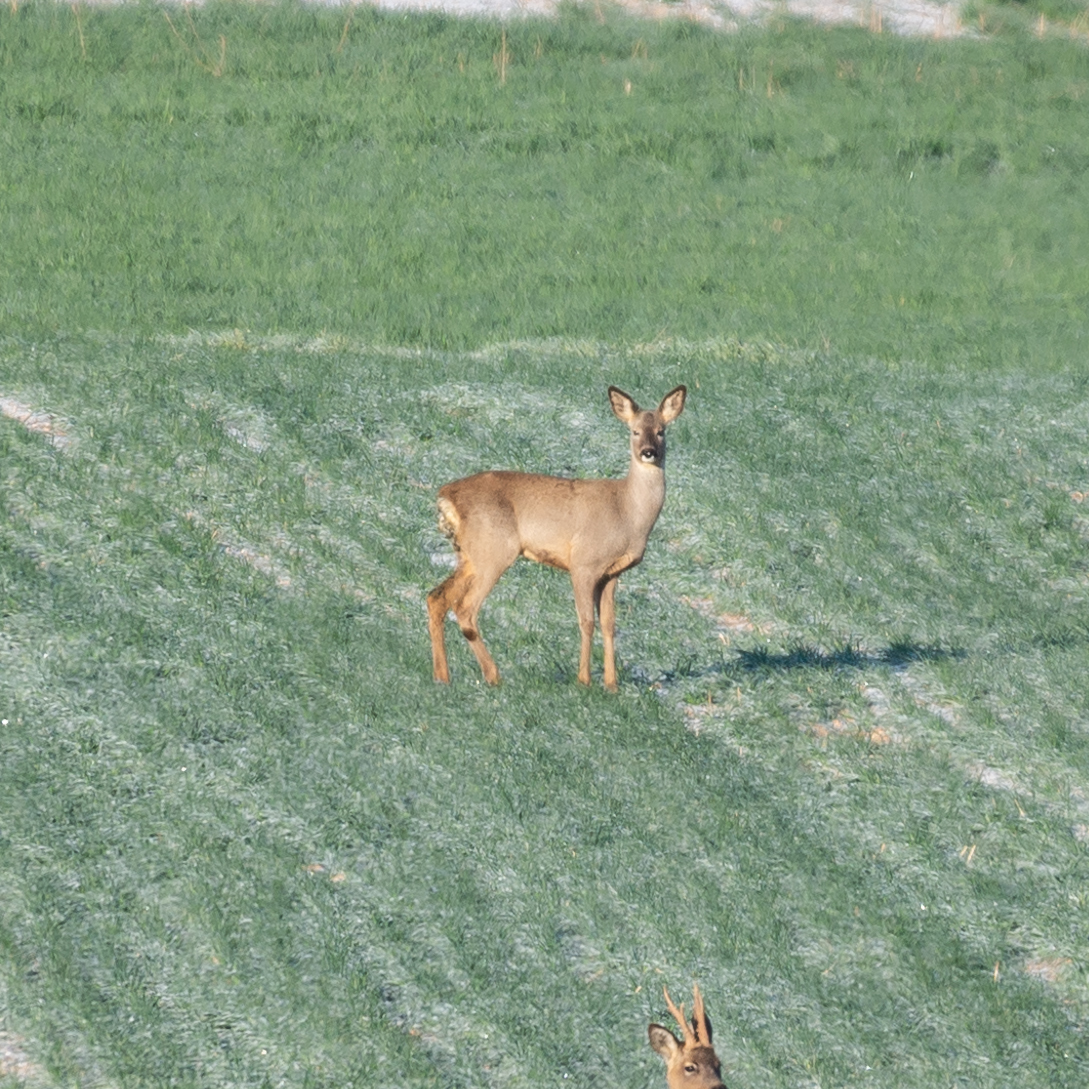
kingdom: Animalia
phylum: Chordata
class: Mammalia
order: Artiodactyla
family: Cervidae
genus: Capreolus
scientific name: Capreolus capreolus
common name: Western roe deer
